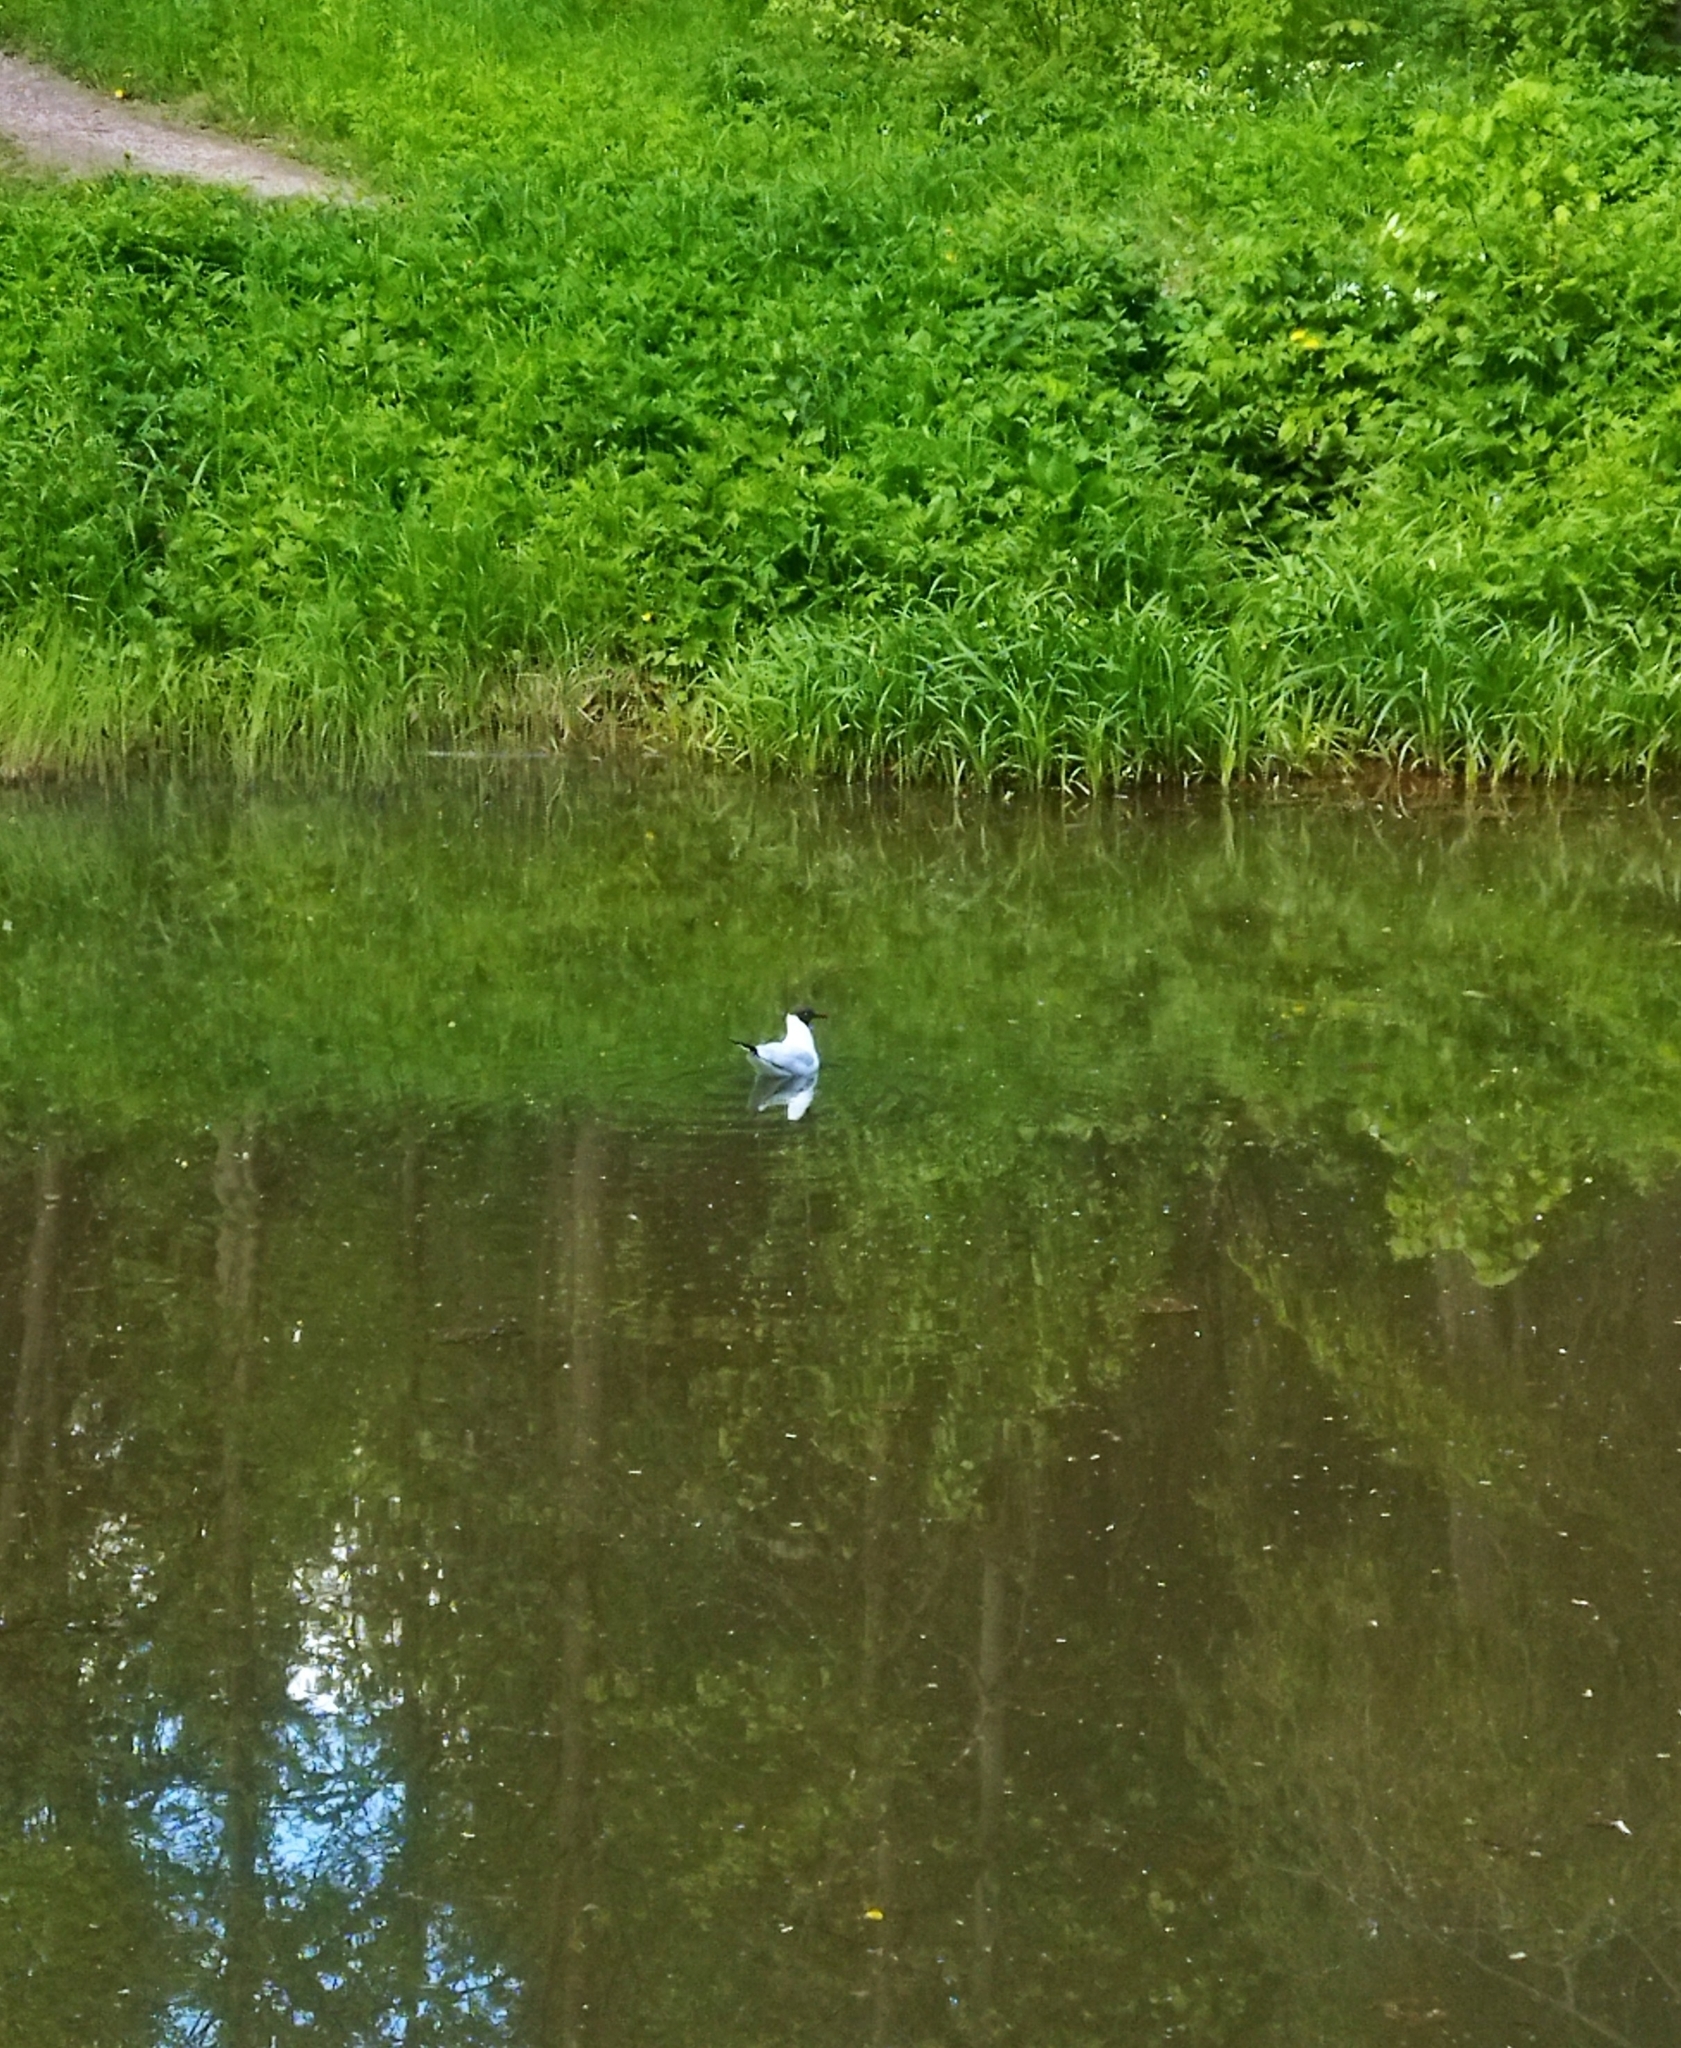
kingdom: Animalia
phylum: Chordata
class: Aves
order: Charadriiformes
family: Laridae
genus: Chroicocephalus
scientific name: Chroicocephalus ridibundus
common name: Black-headed gull
